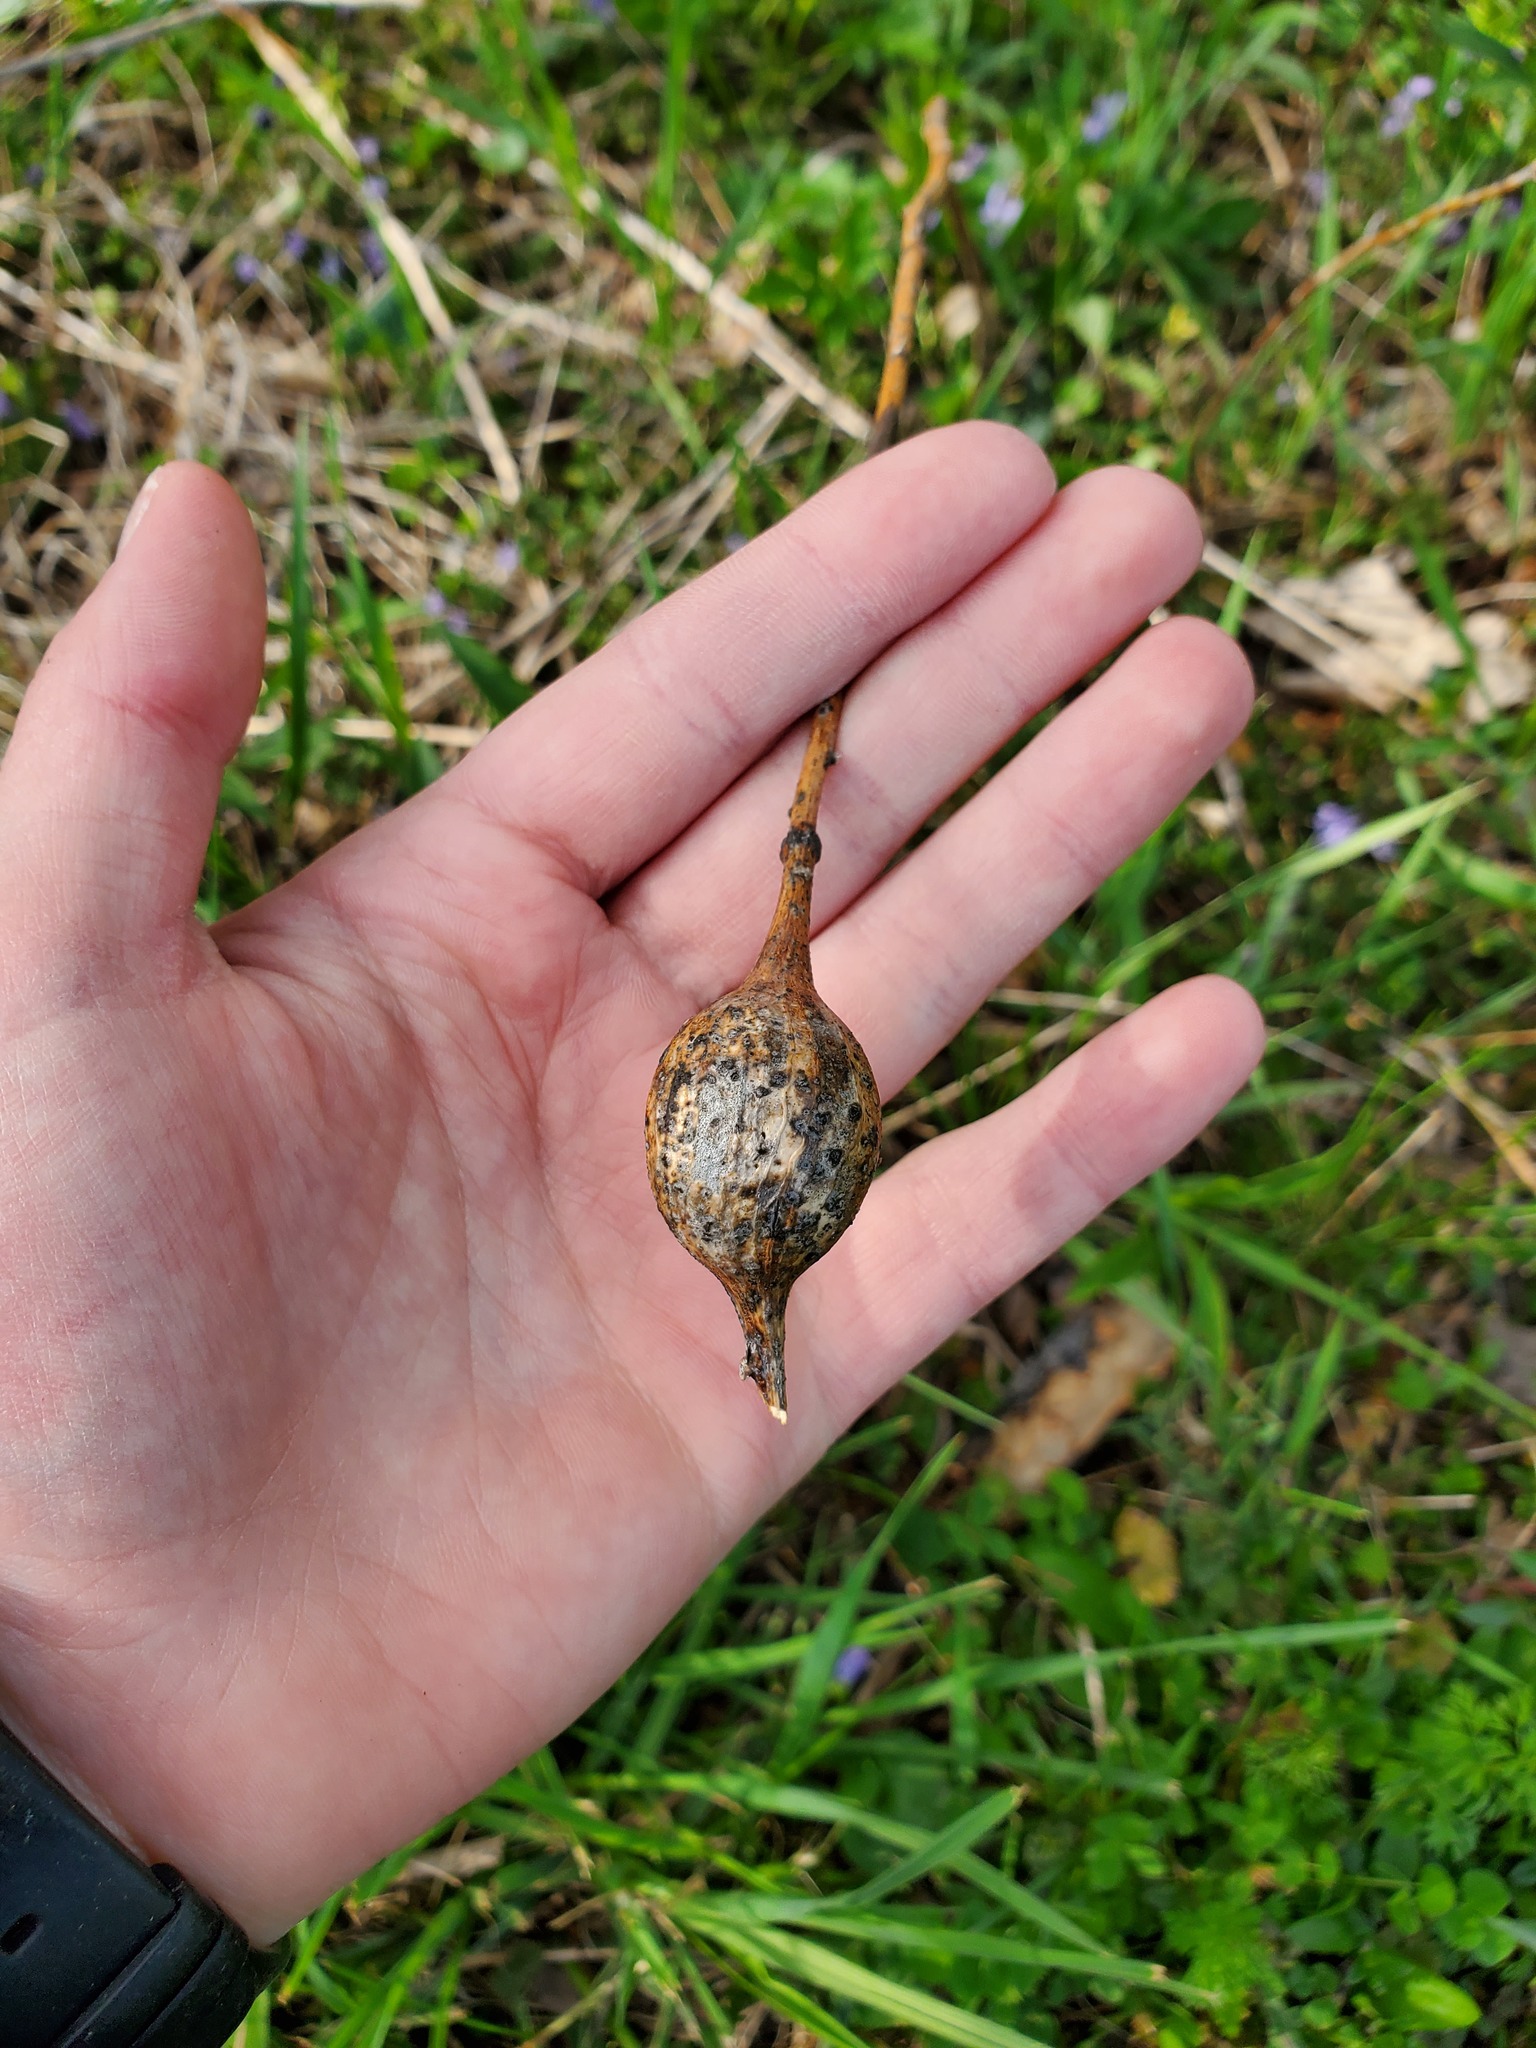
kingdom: Animalia
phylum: Arthropoda
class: Insecta
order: Diptera
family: Tephritidae
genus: Eurosta
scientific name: Eurosta solidaginis
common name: Goldenrod gall fly
